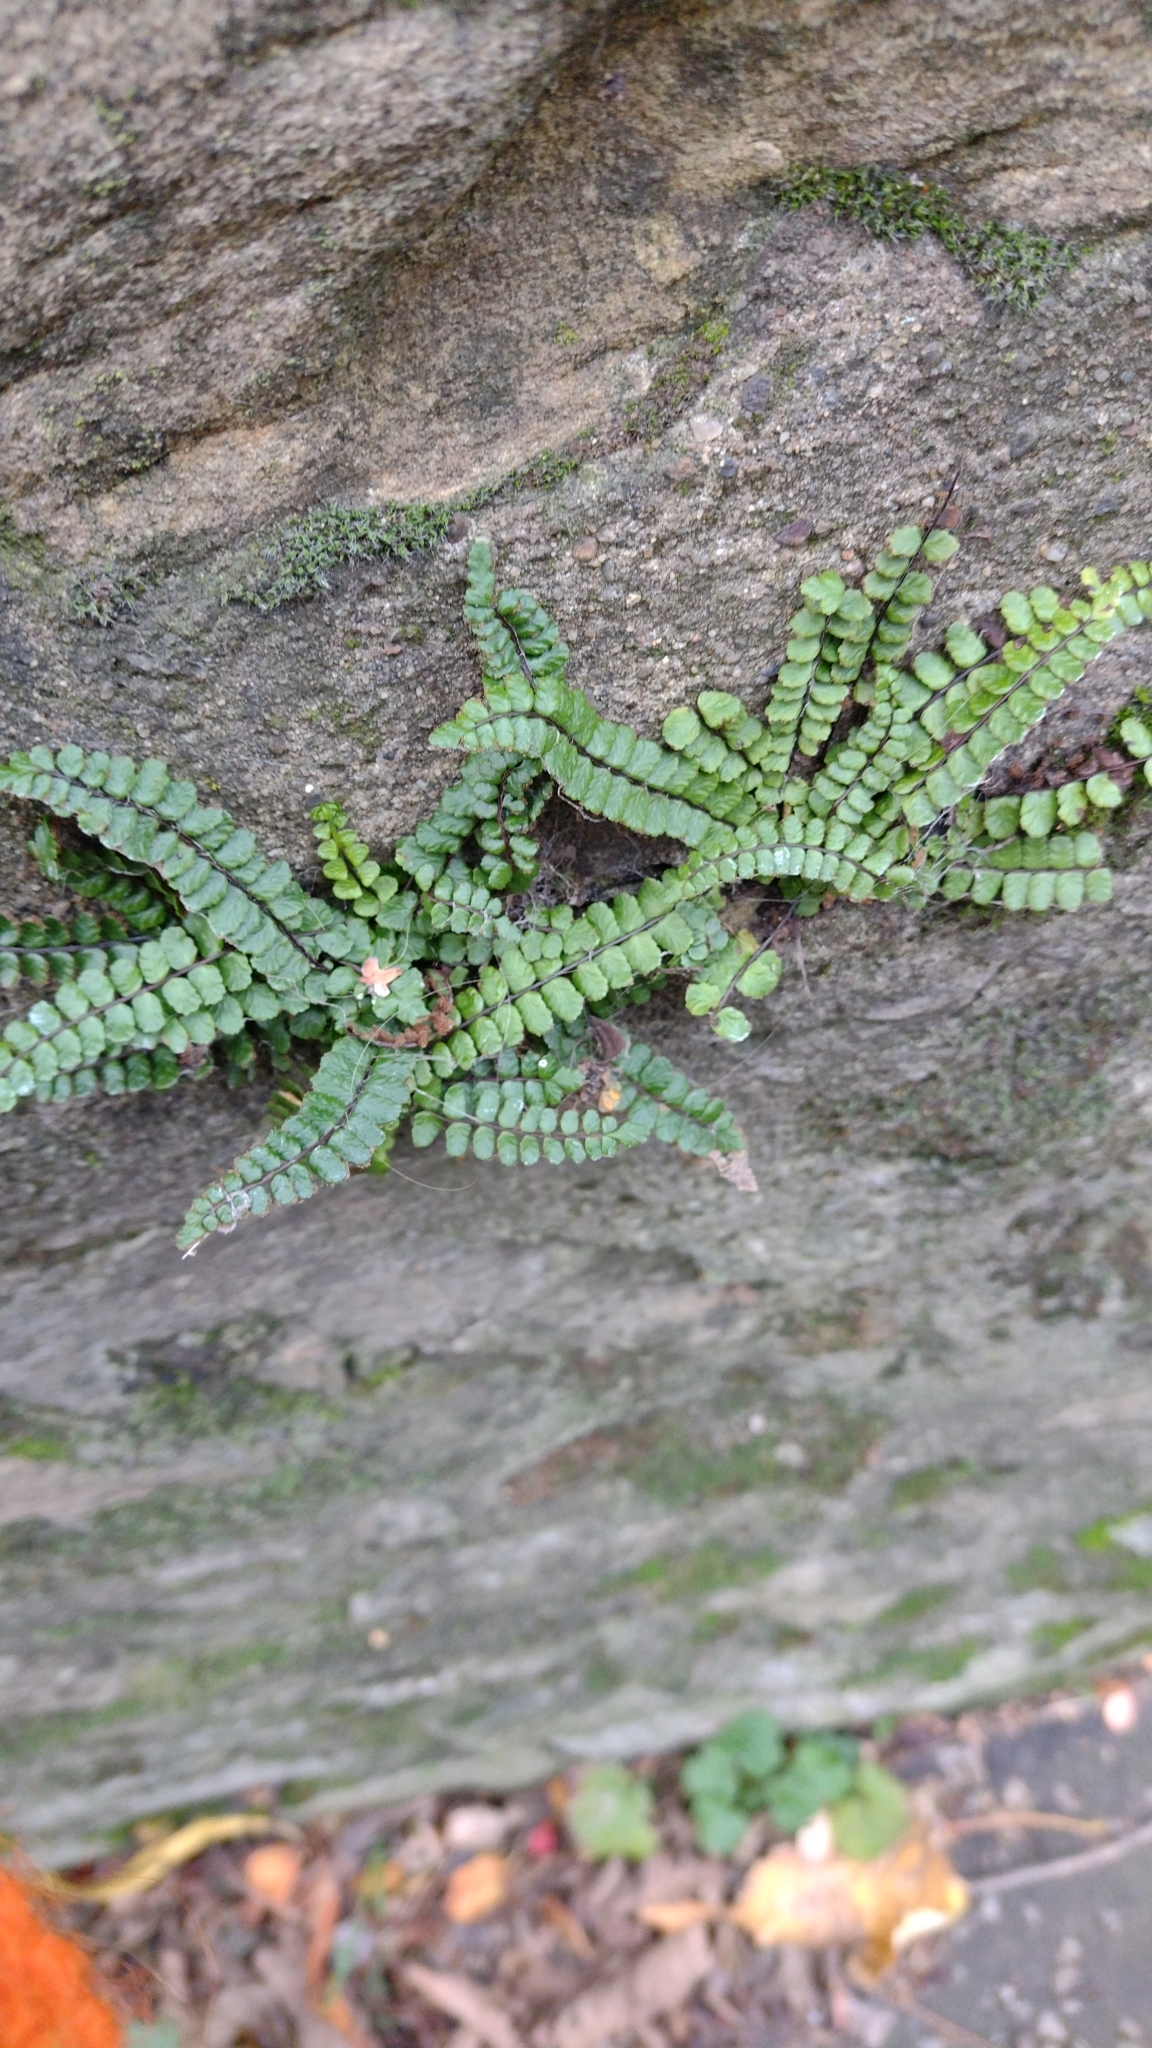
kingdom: Plantae
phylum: Tracheophyta
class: Polypodiopsida
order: Polypodiales
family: Aspleniaceae
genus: Asplenium
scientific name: Asplenium trichomanes
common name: Maidenhair spleenwort
